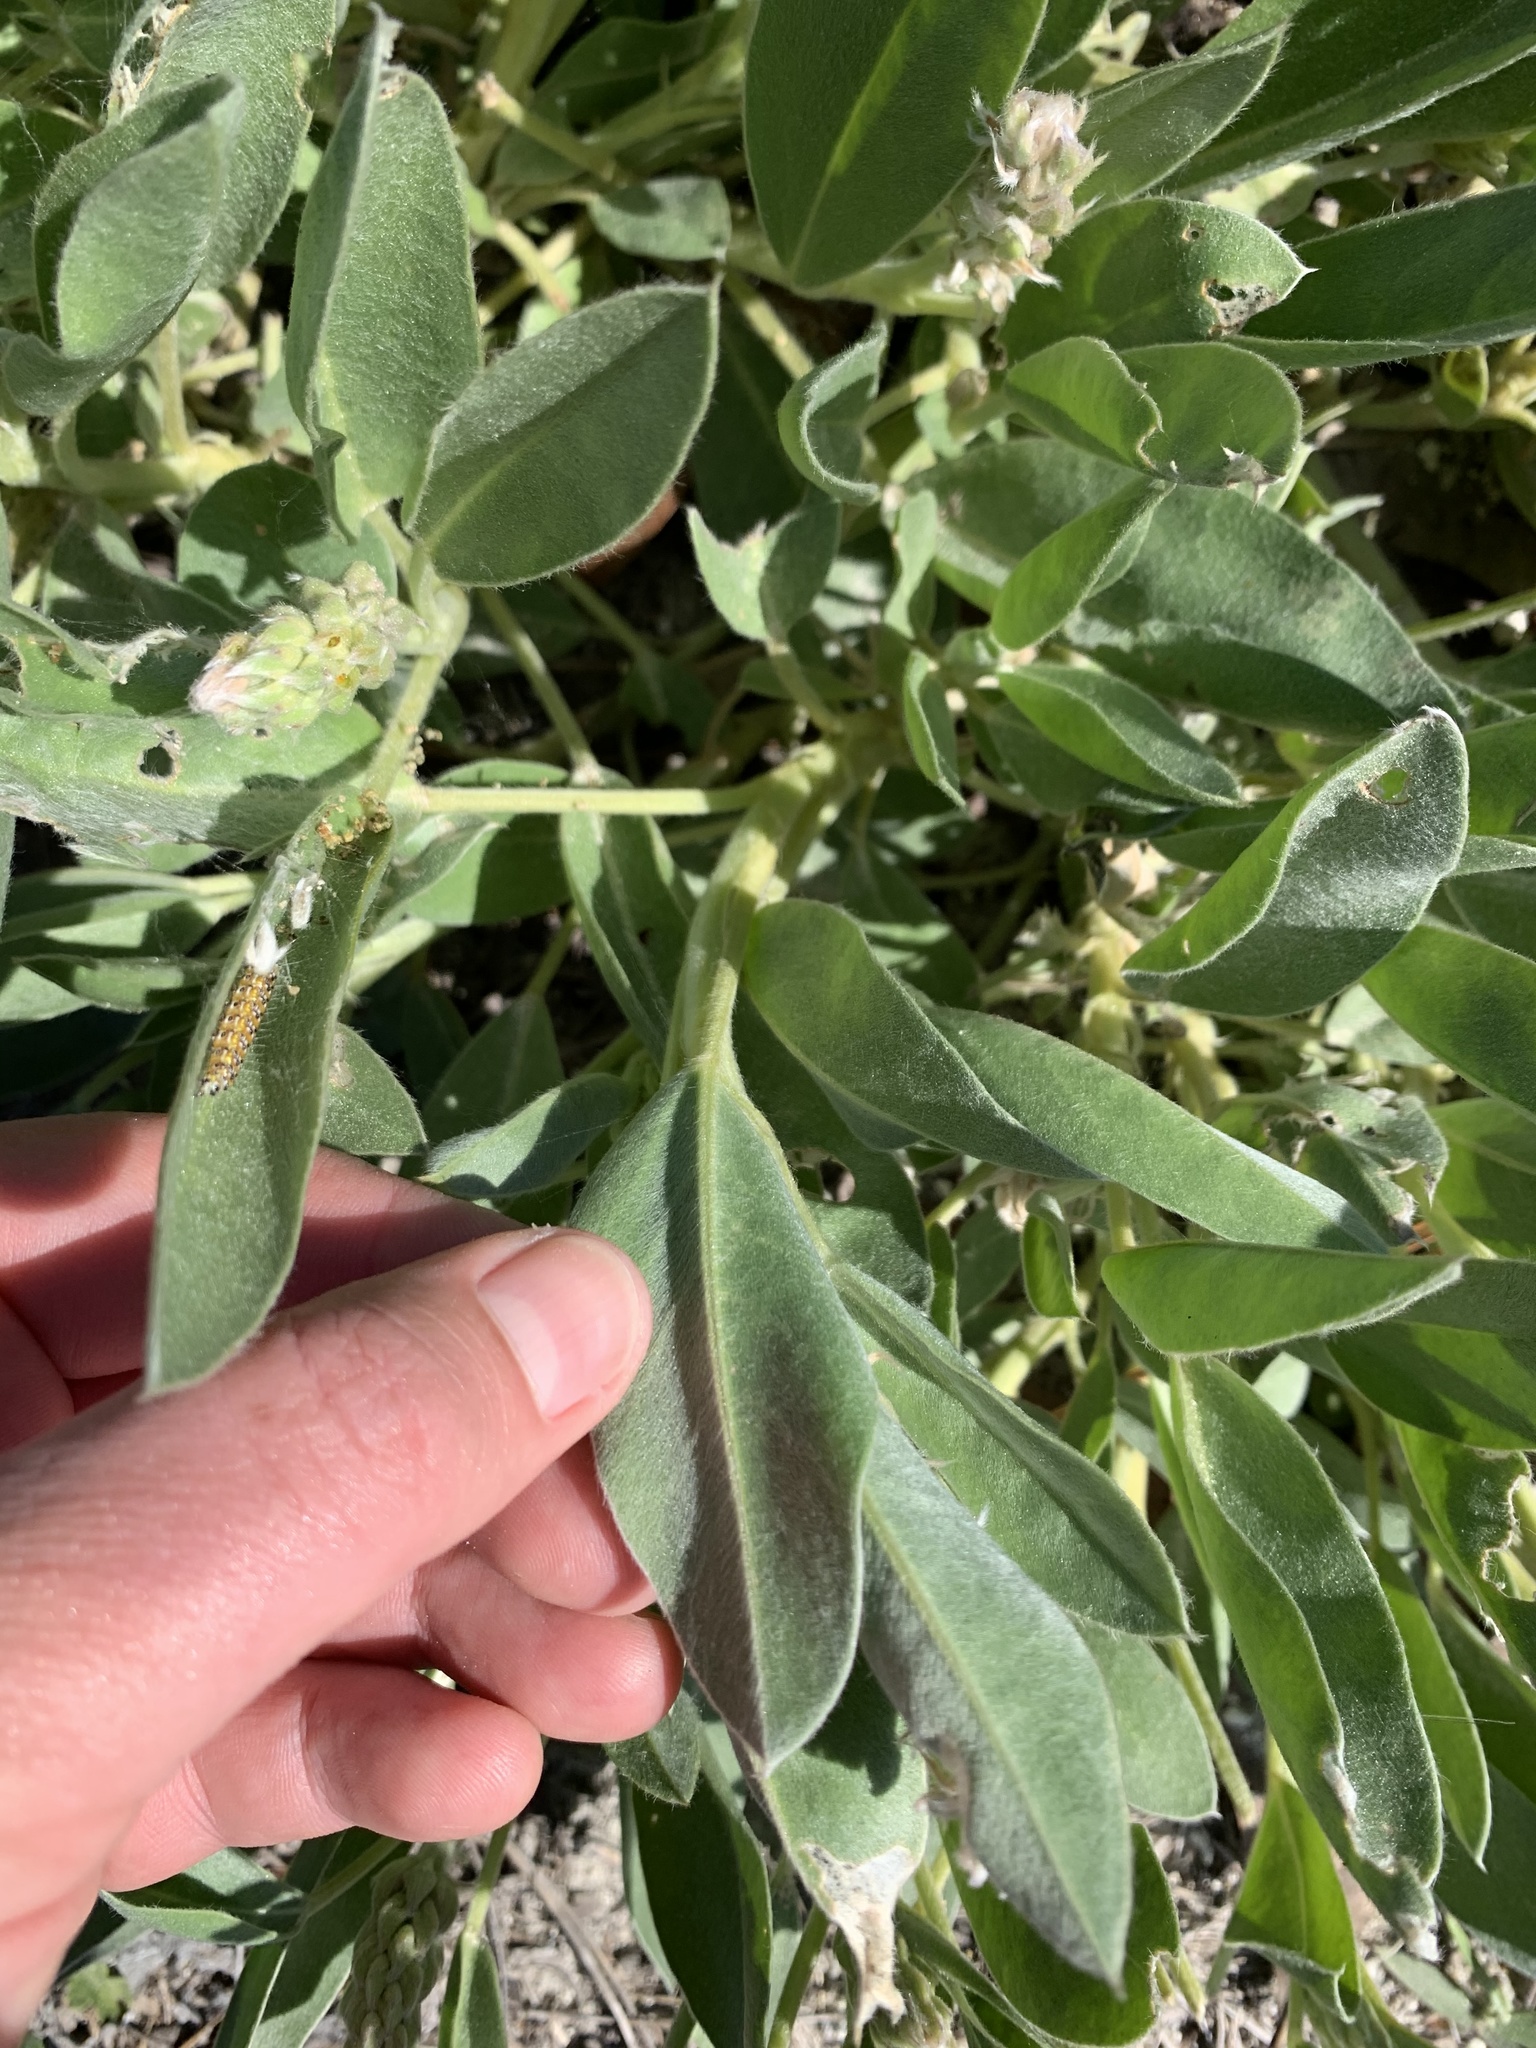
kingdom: Plantae
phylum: Tracheophyta
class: Magnoliopsida
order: Fabales
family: Fabaceae
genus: Lupinus
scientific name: Lupinus
